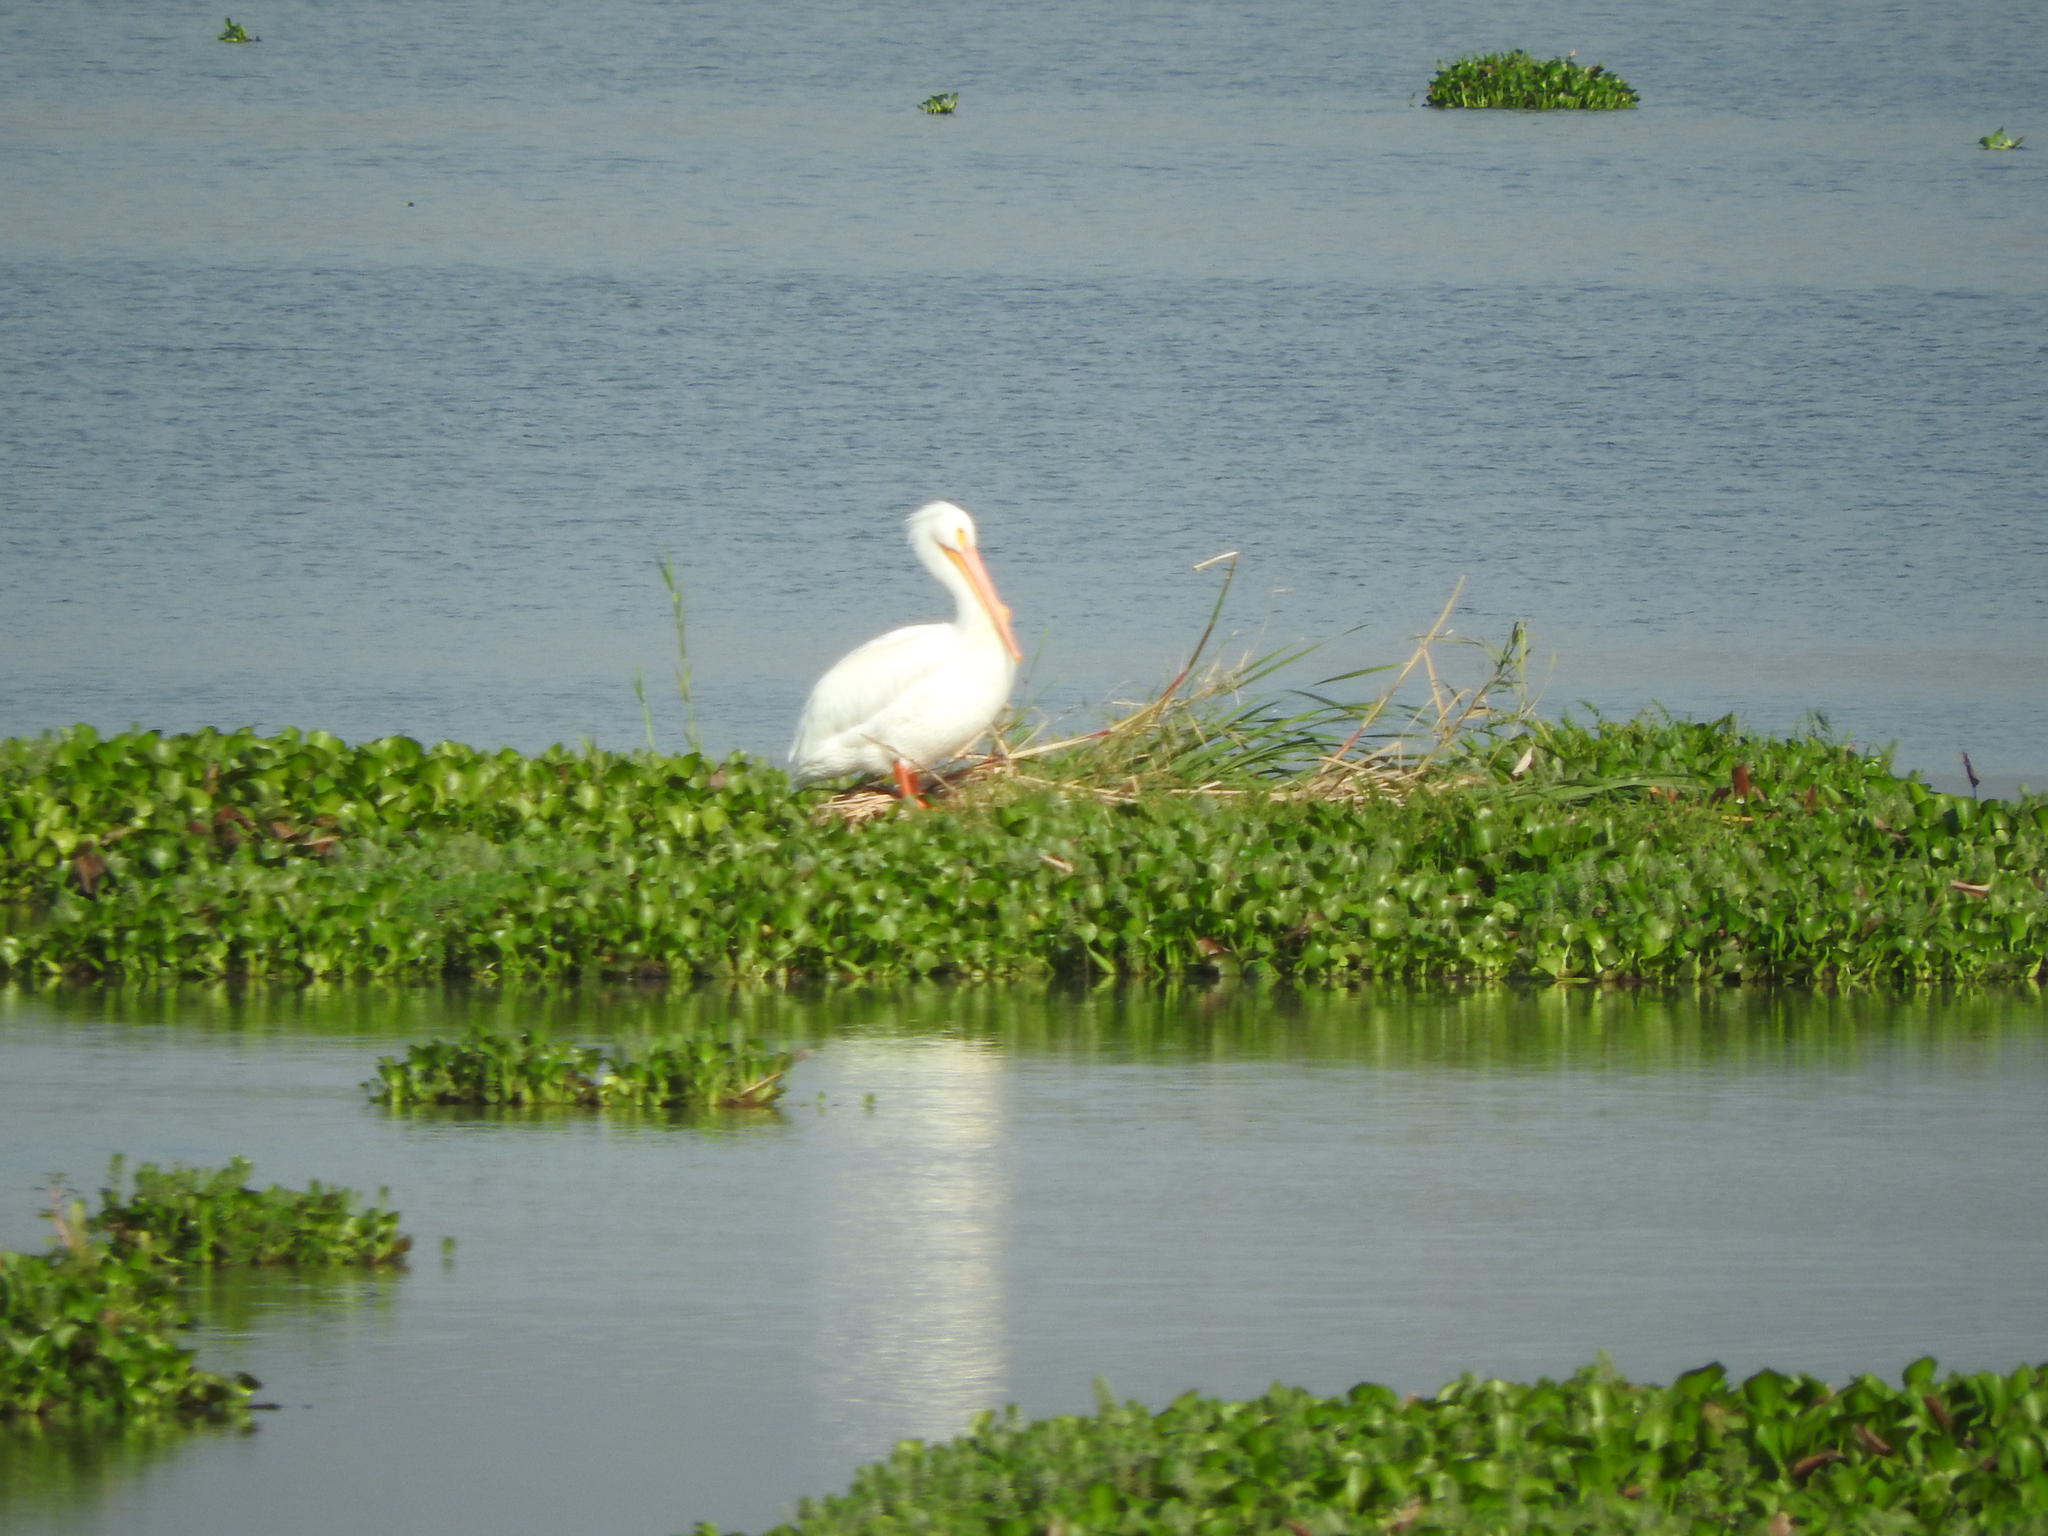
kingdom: Animalia
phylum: Chordata
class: Aves
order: Pelecaniformes
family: Pelecanidae
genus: Pelecanus
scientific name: Pelecanus erythrorhynchos
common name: American white pelican
